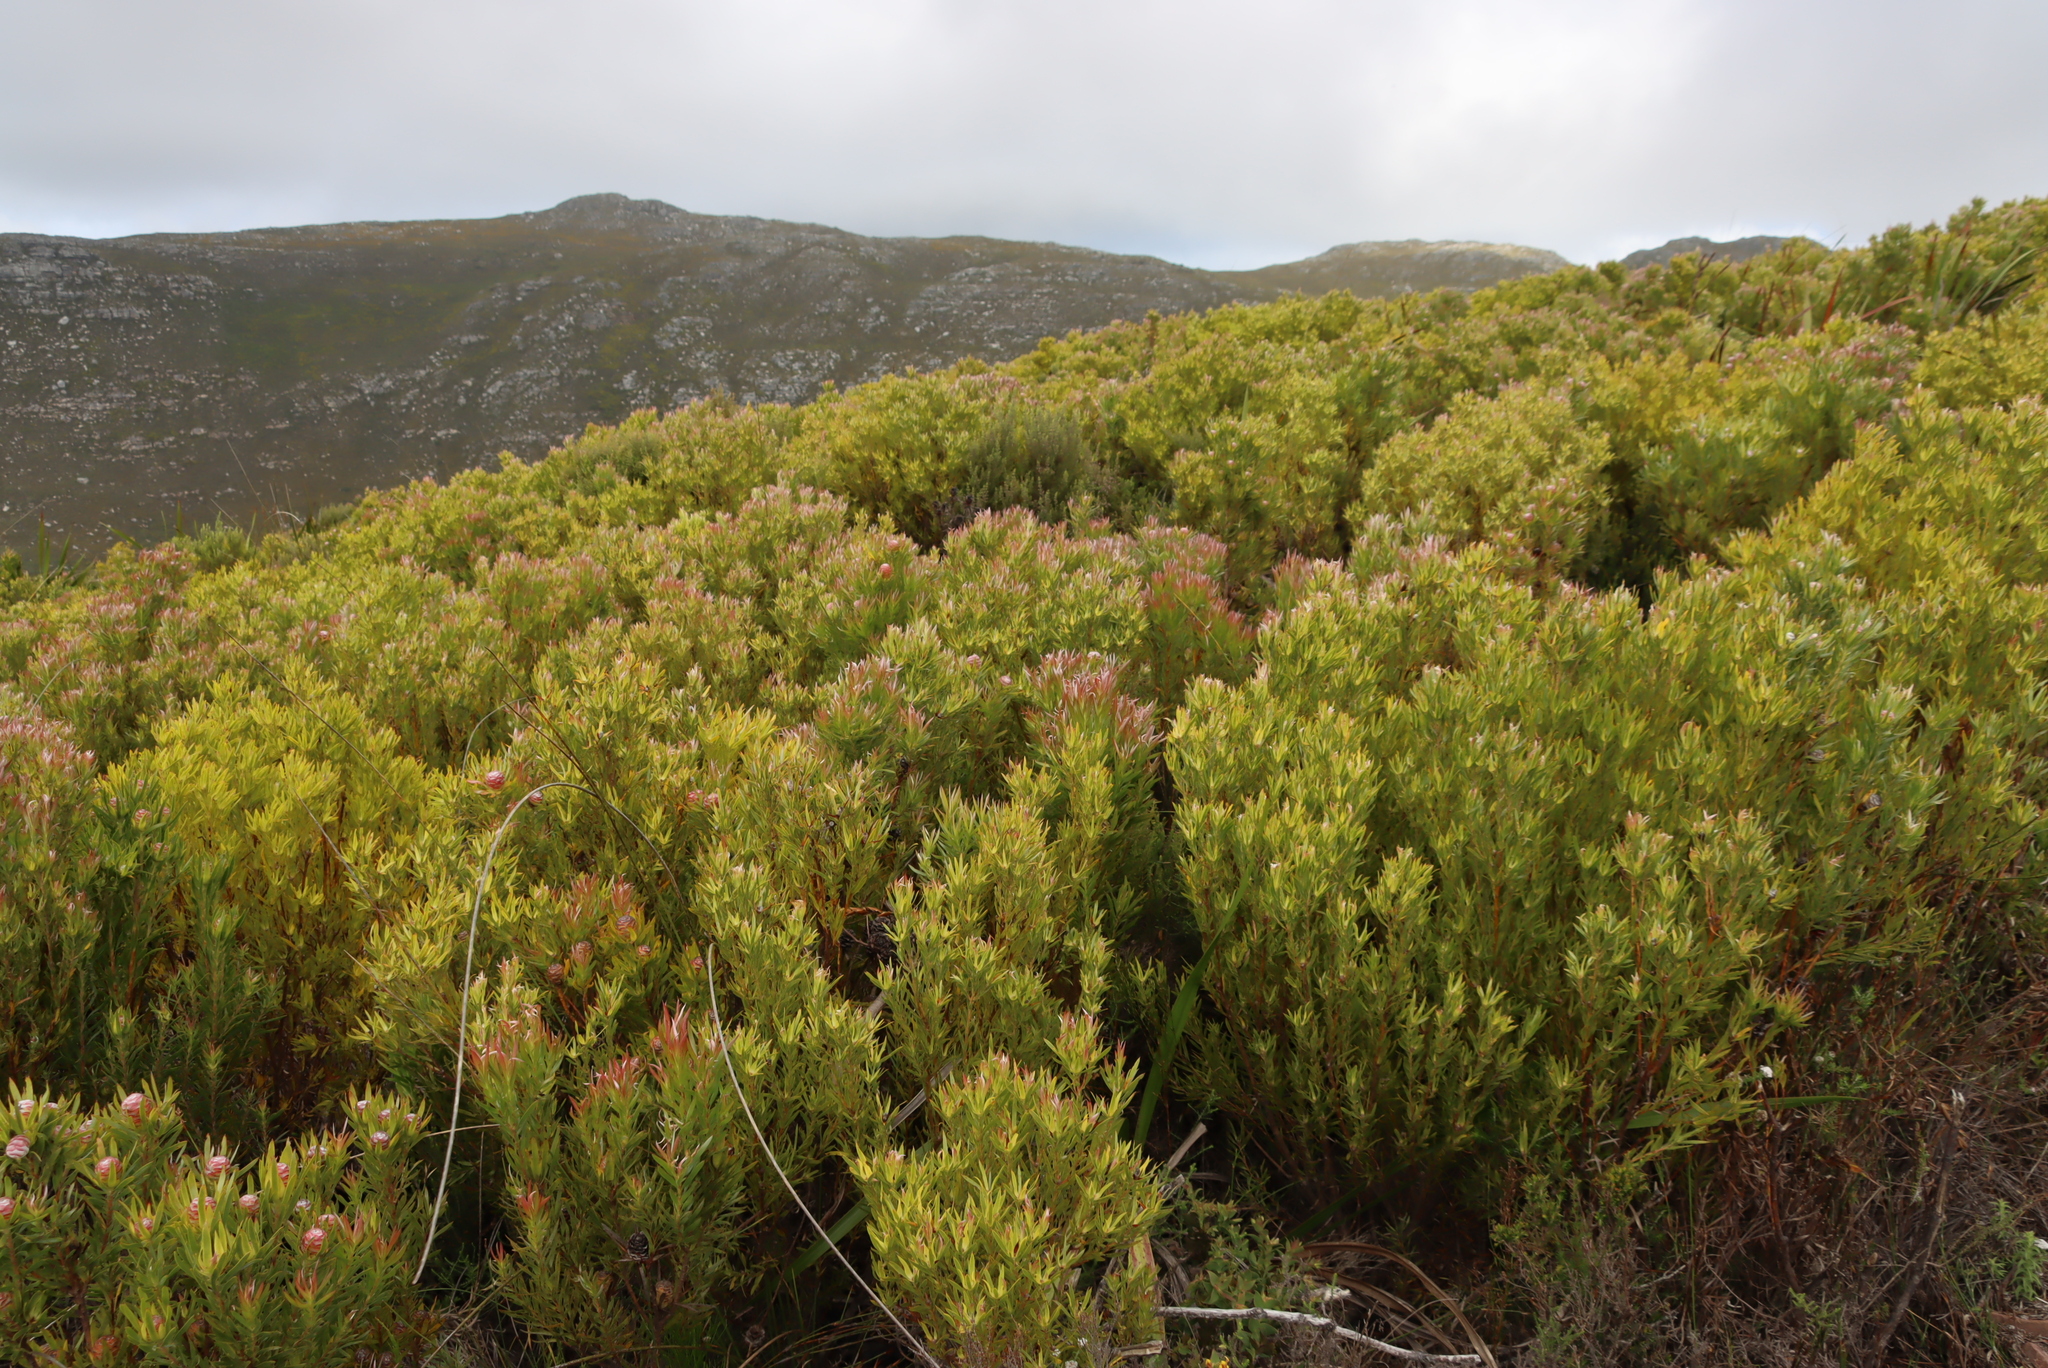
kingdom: Plantae
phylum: Tracheophyta
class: Magnoliopsida
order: Proteales
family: Proteaceae
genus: Leucadendron
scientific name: Leucadendron xanthoconus
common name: Sickle-leaf conebush
